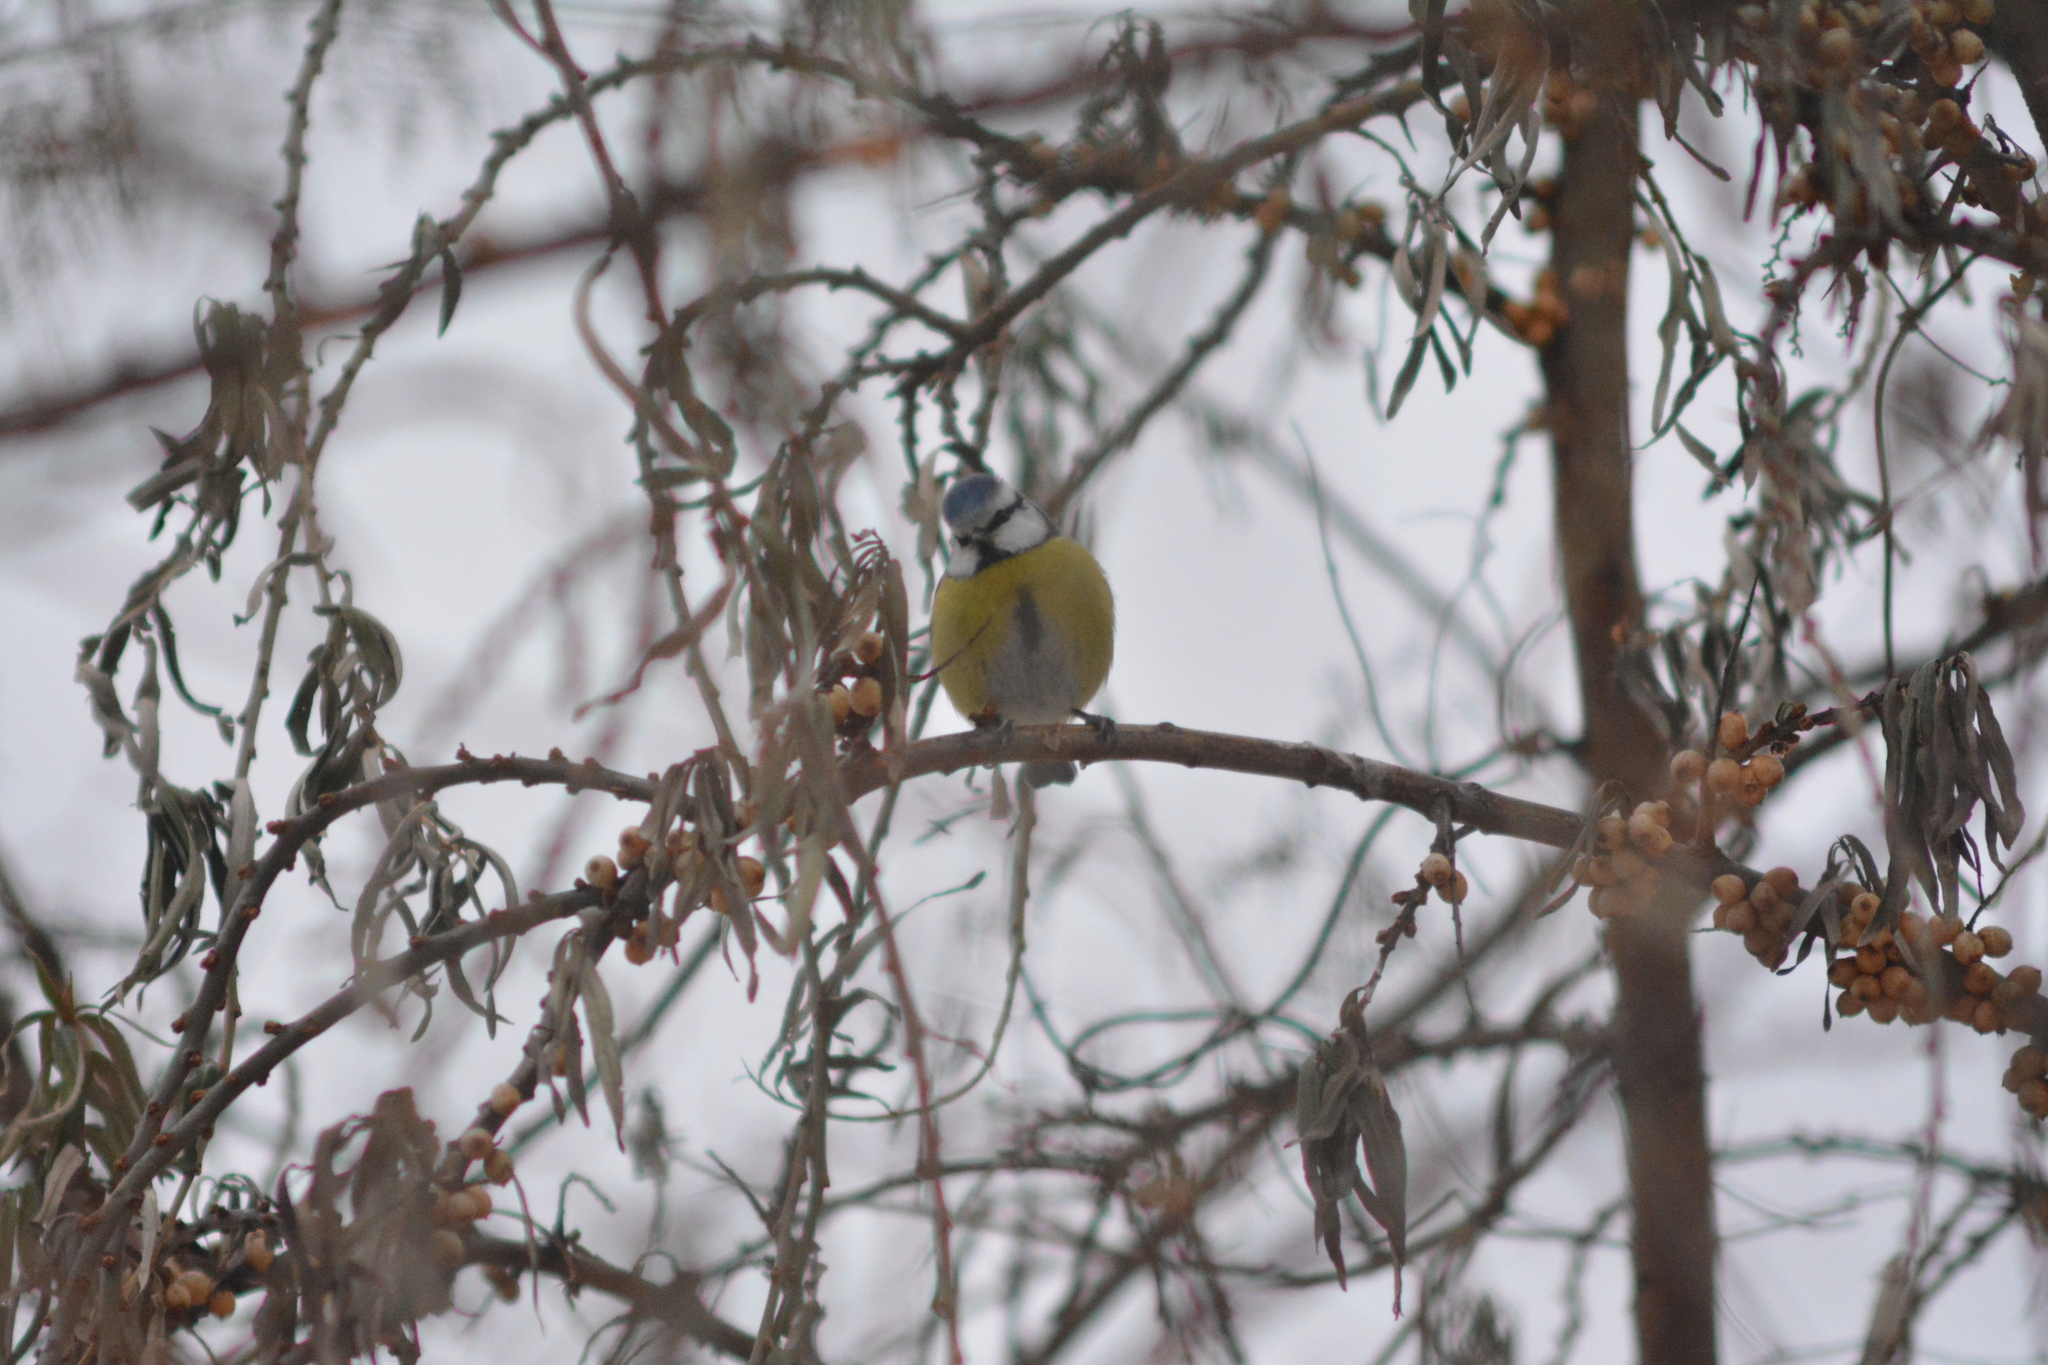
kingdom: Animalia
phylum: Chordata
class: Aves
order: Passeriformes
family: Paridae
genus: Cyanistes
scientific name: Cyanistes caeruleus
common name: Eurasian blue tit
